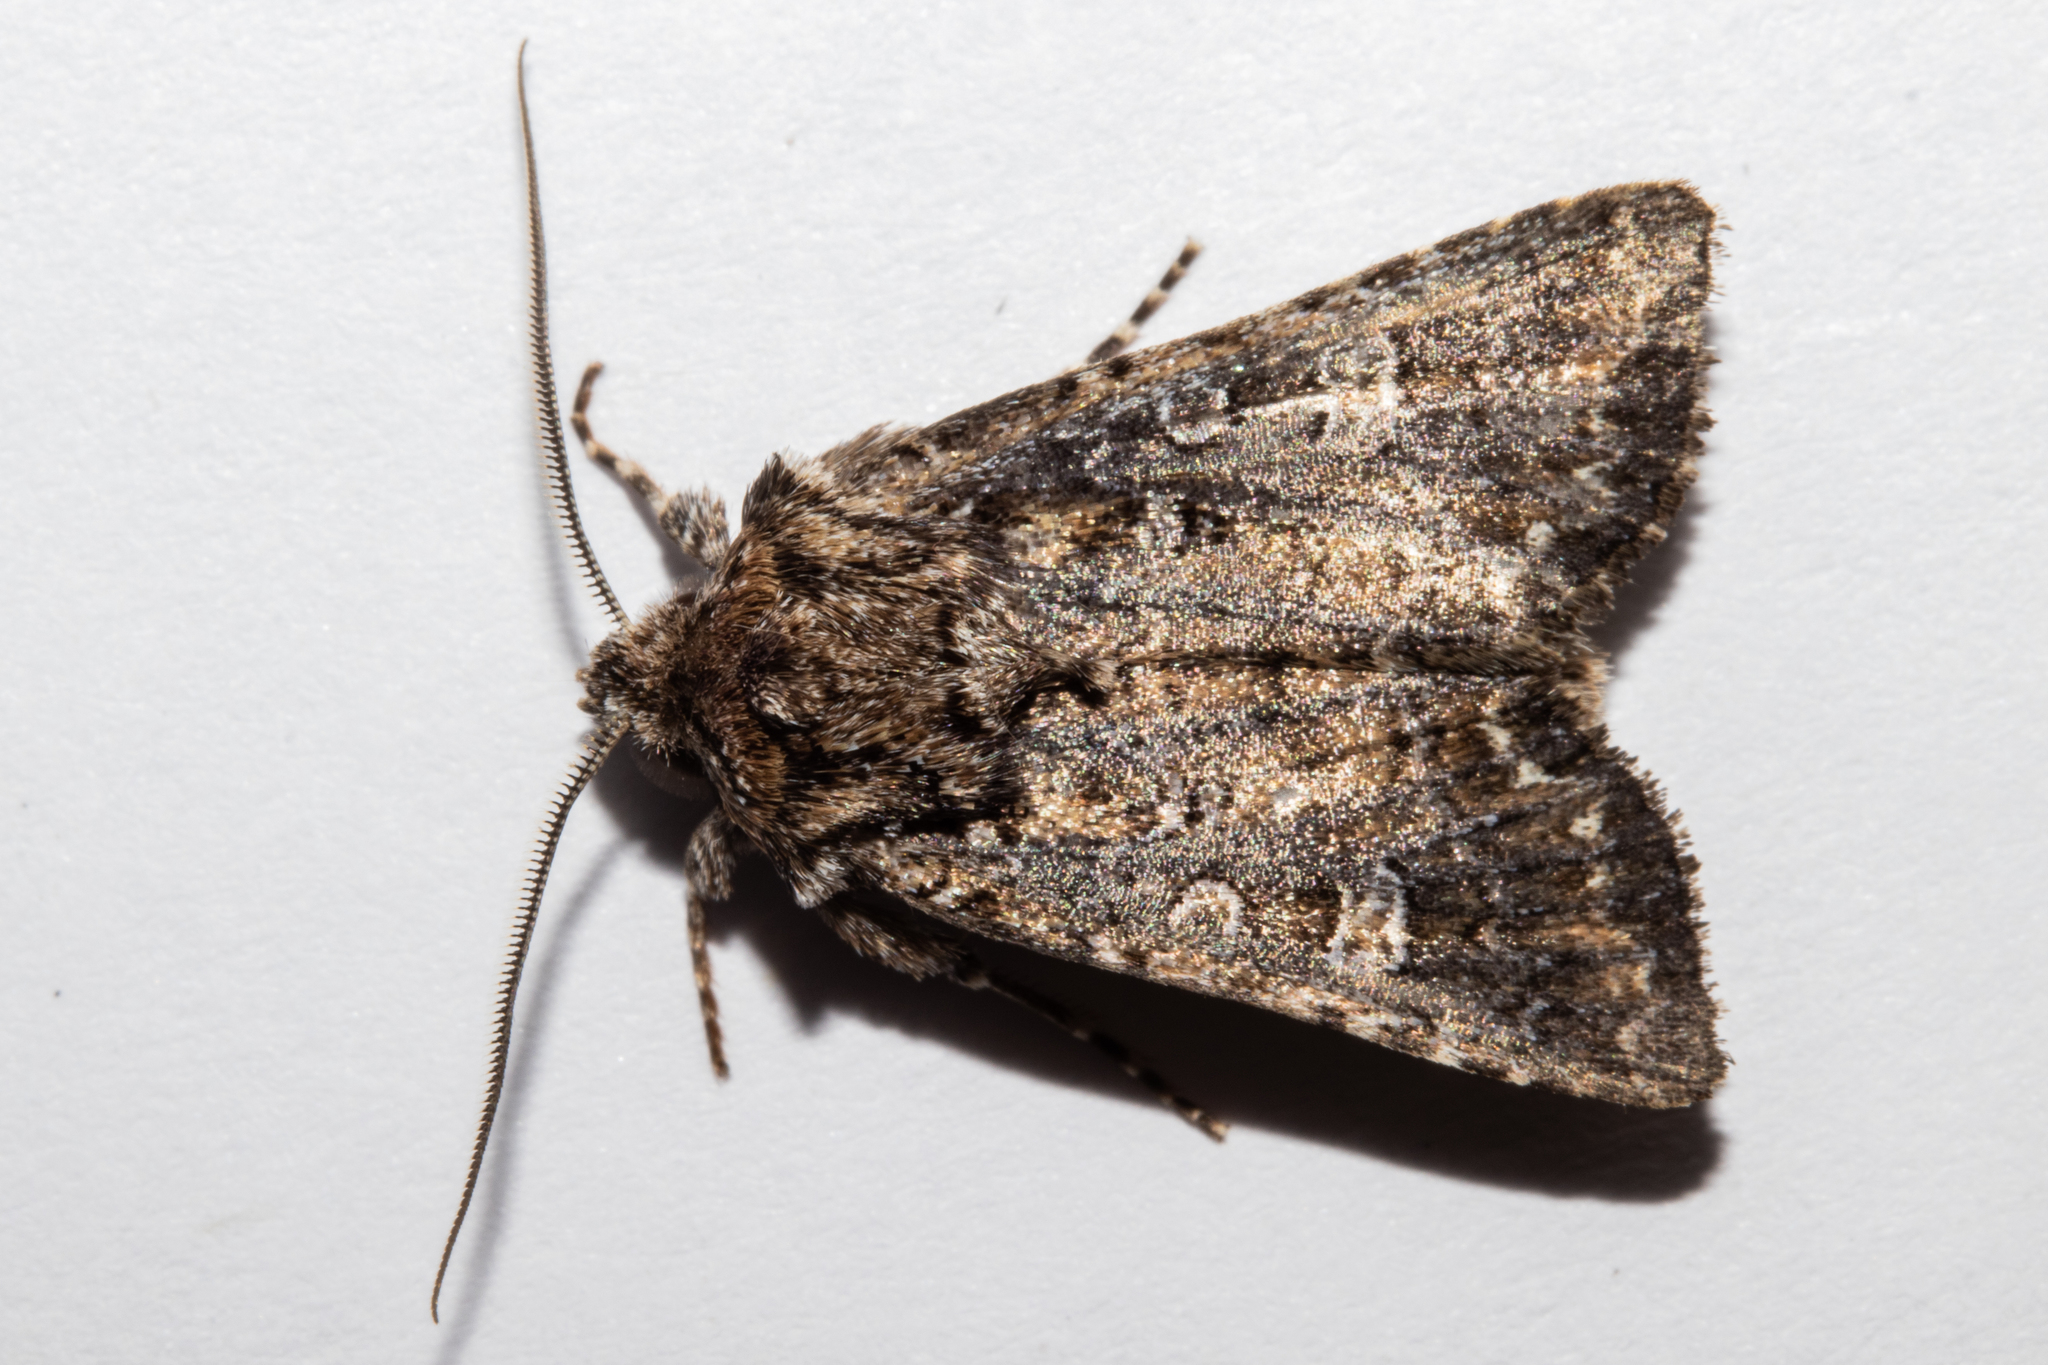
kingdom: Animalia
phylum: Arthropoda
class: Insecta
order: Lepidoptera
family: Noctuidae
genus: Ichneutica
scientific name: Ichneutica lithias
